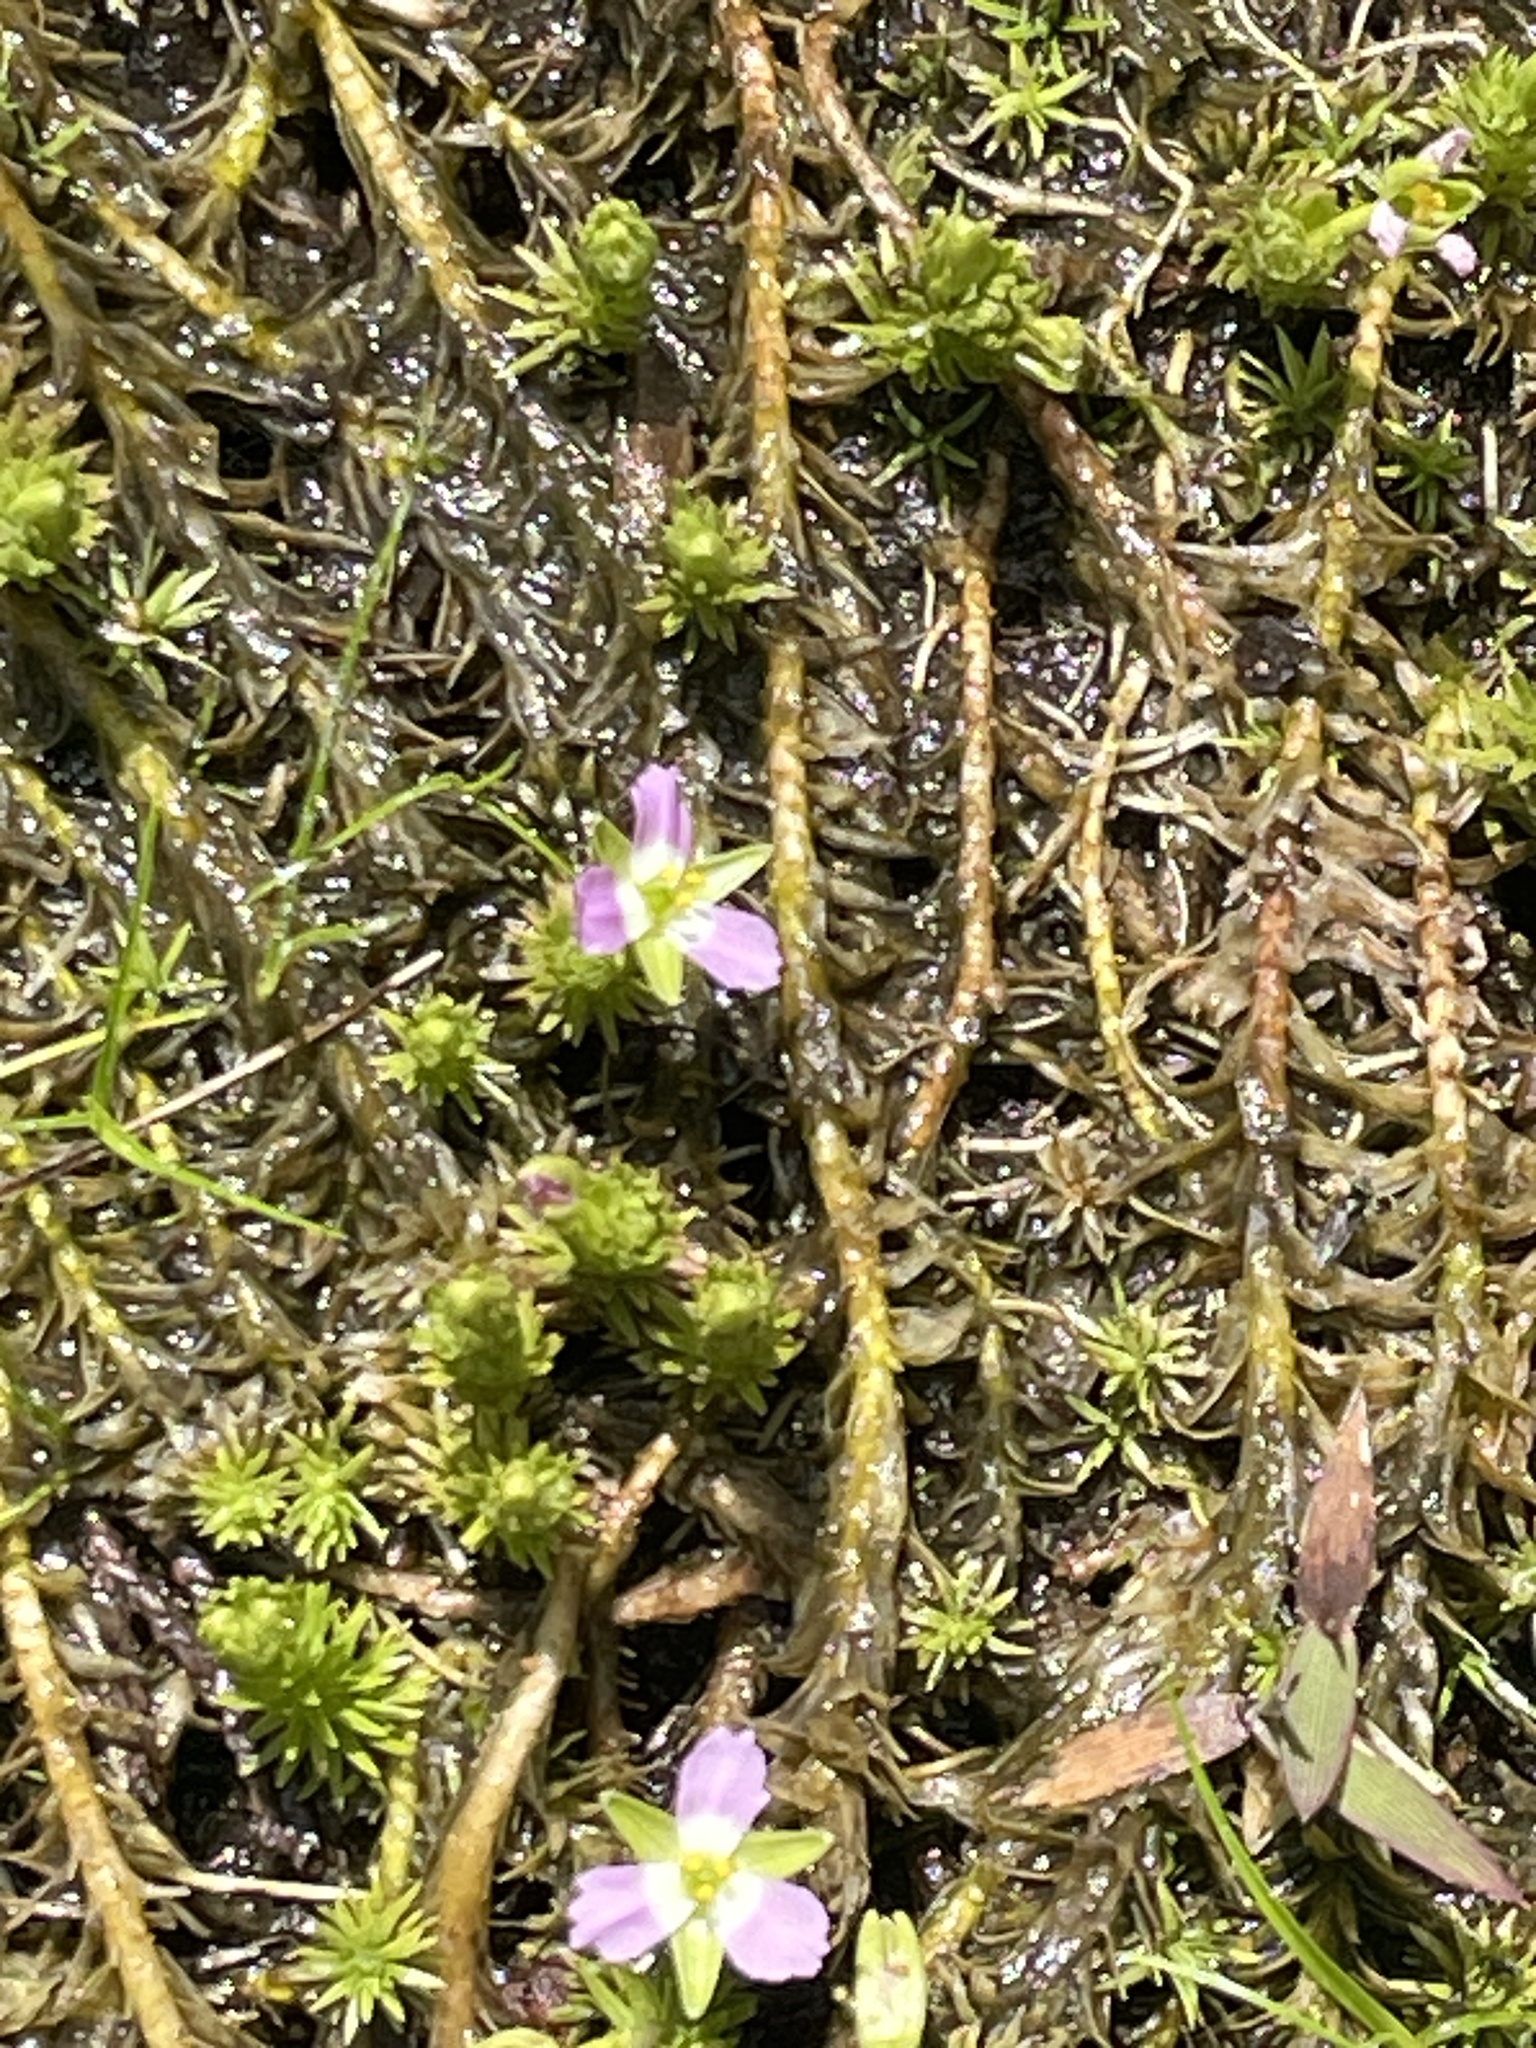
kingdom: Plantae
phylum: Tracheophyta
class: Liliopsida
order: Poales
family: Mayacaceae
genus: Mayaca
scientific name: Mayaca fluviatilis
